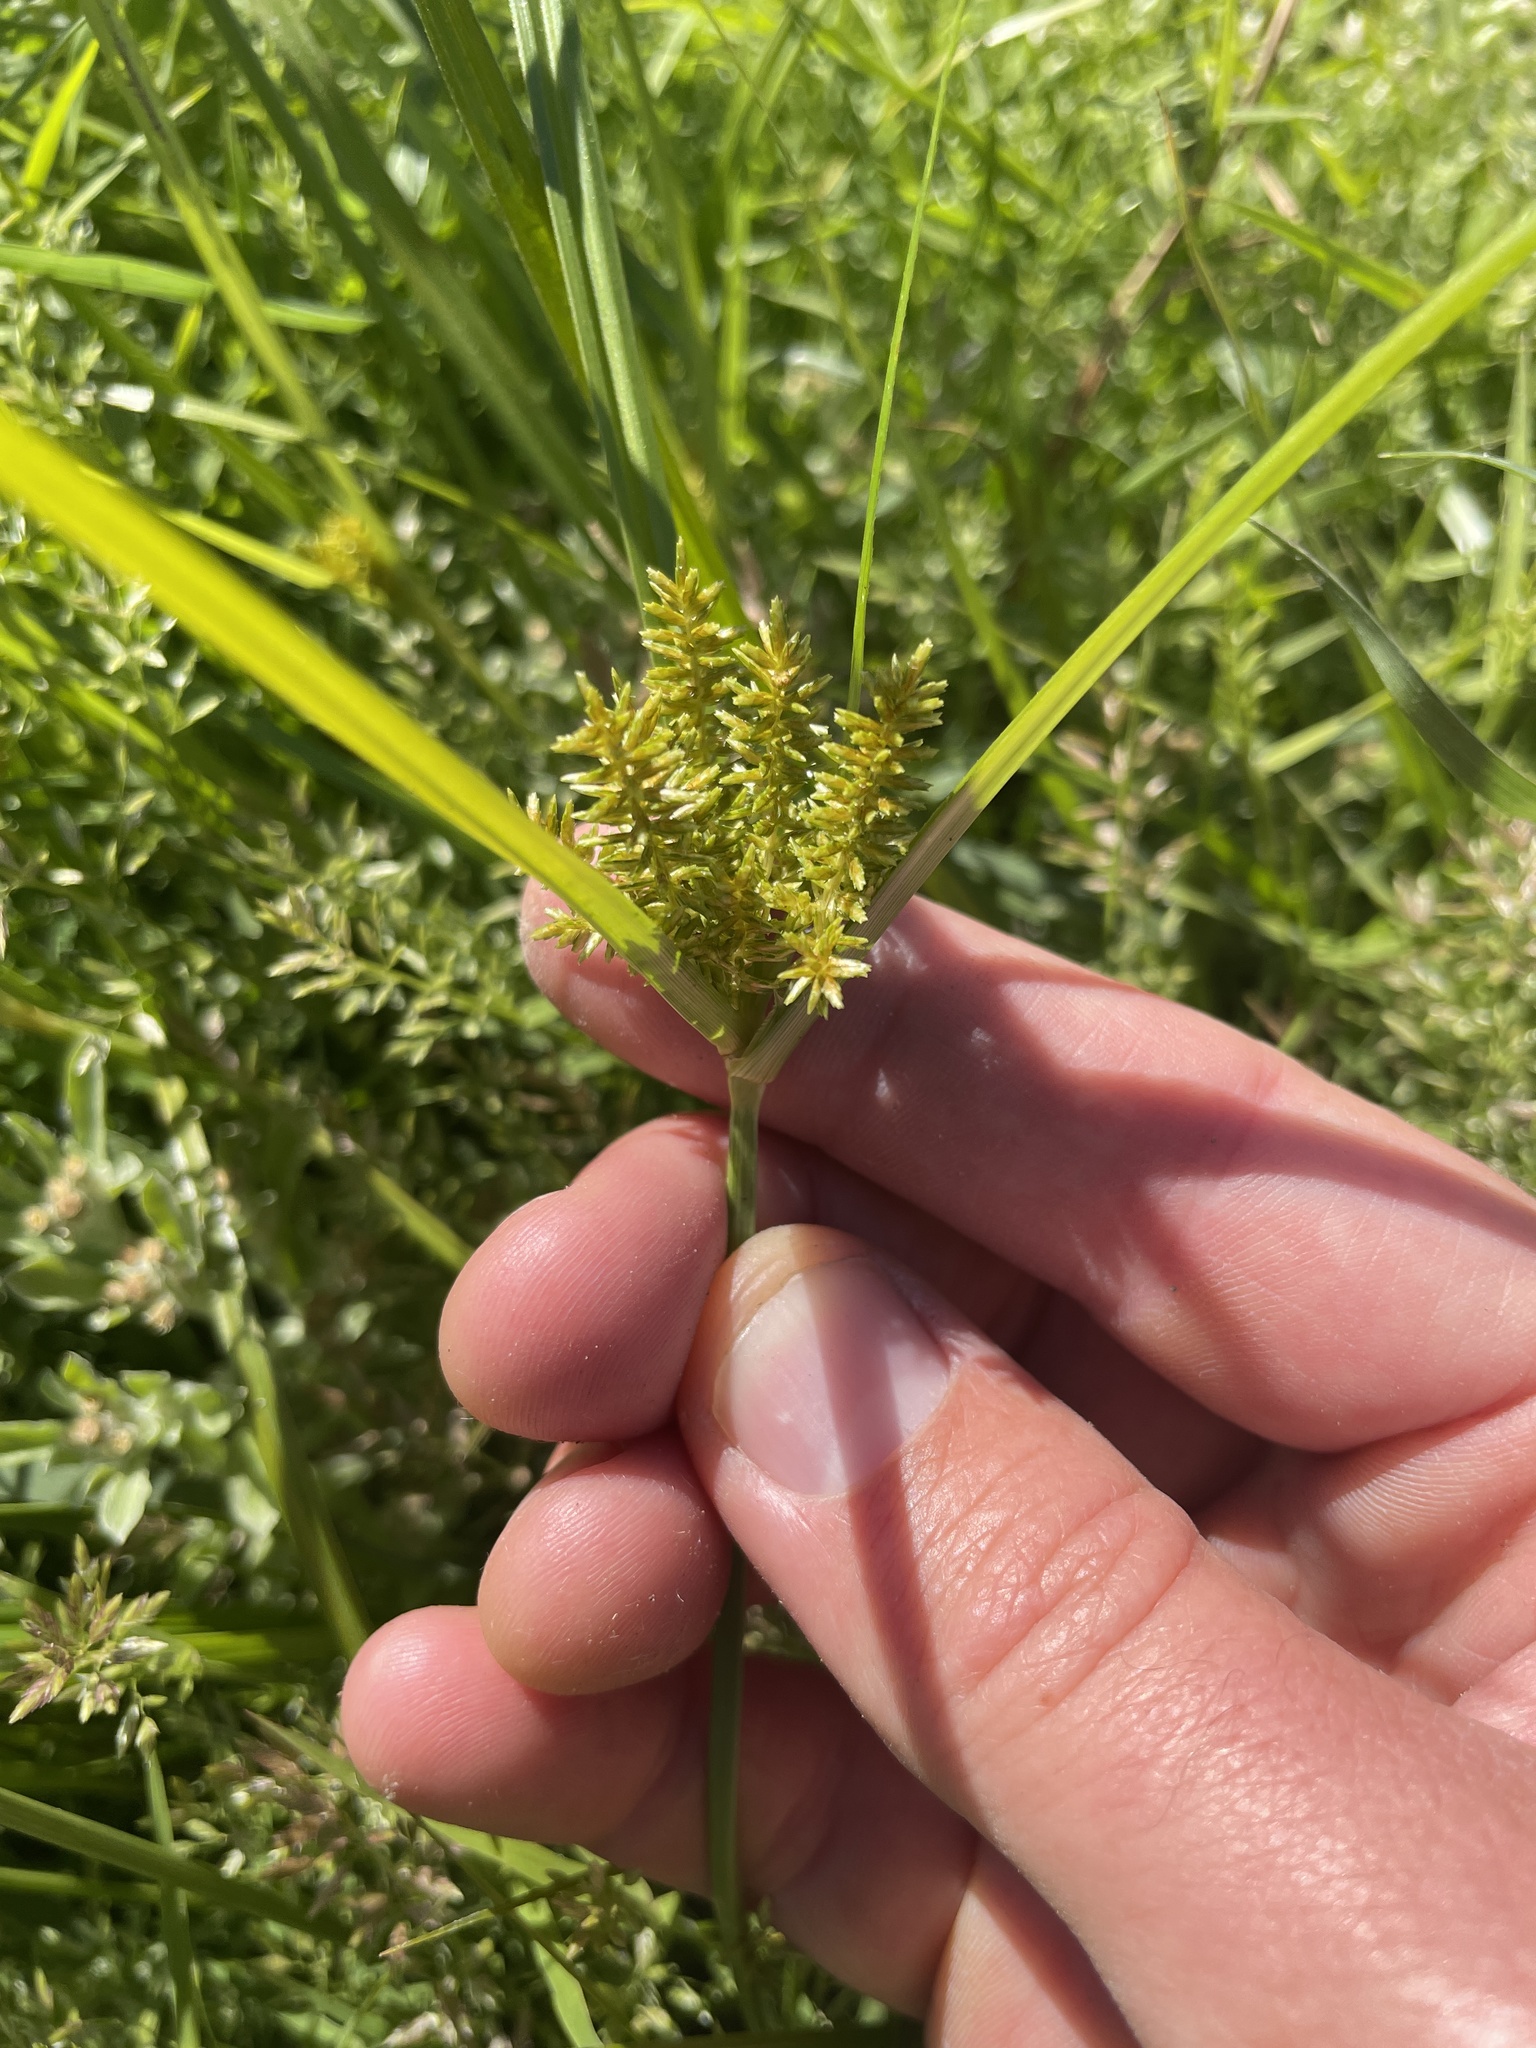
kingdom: Plantae
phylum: Tracheophyta
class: Liliopsida
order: Poales
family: Cyperaceae
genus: Cyperus
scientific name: Cyperus erythrorhizos
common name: Red-root flat sedge
